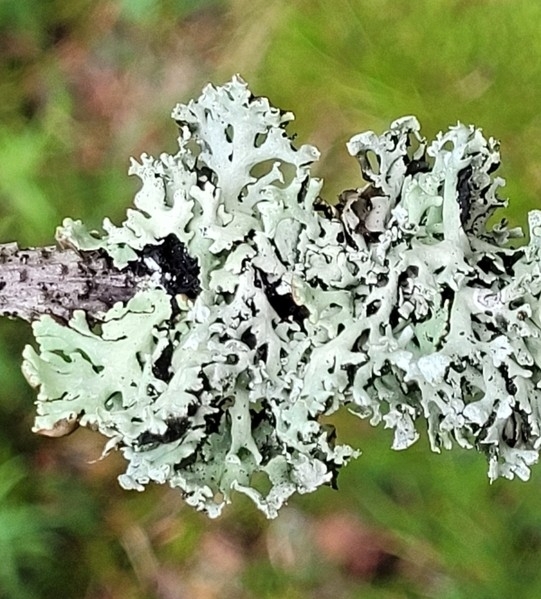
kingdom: Fungi
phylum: Ascomycota
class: Lecanoromycetes
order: Lecanorales
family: Parmeliaceae
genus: Hypogymnia
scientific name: Hypogymnia physodes
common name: Dark crottle
